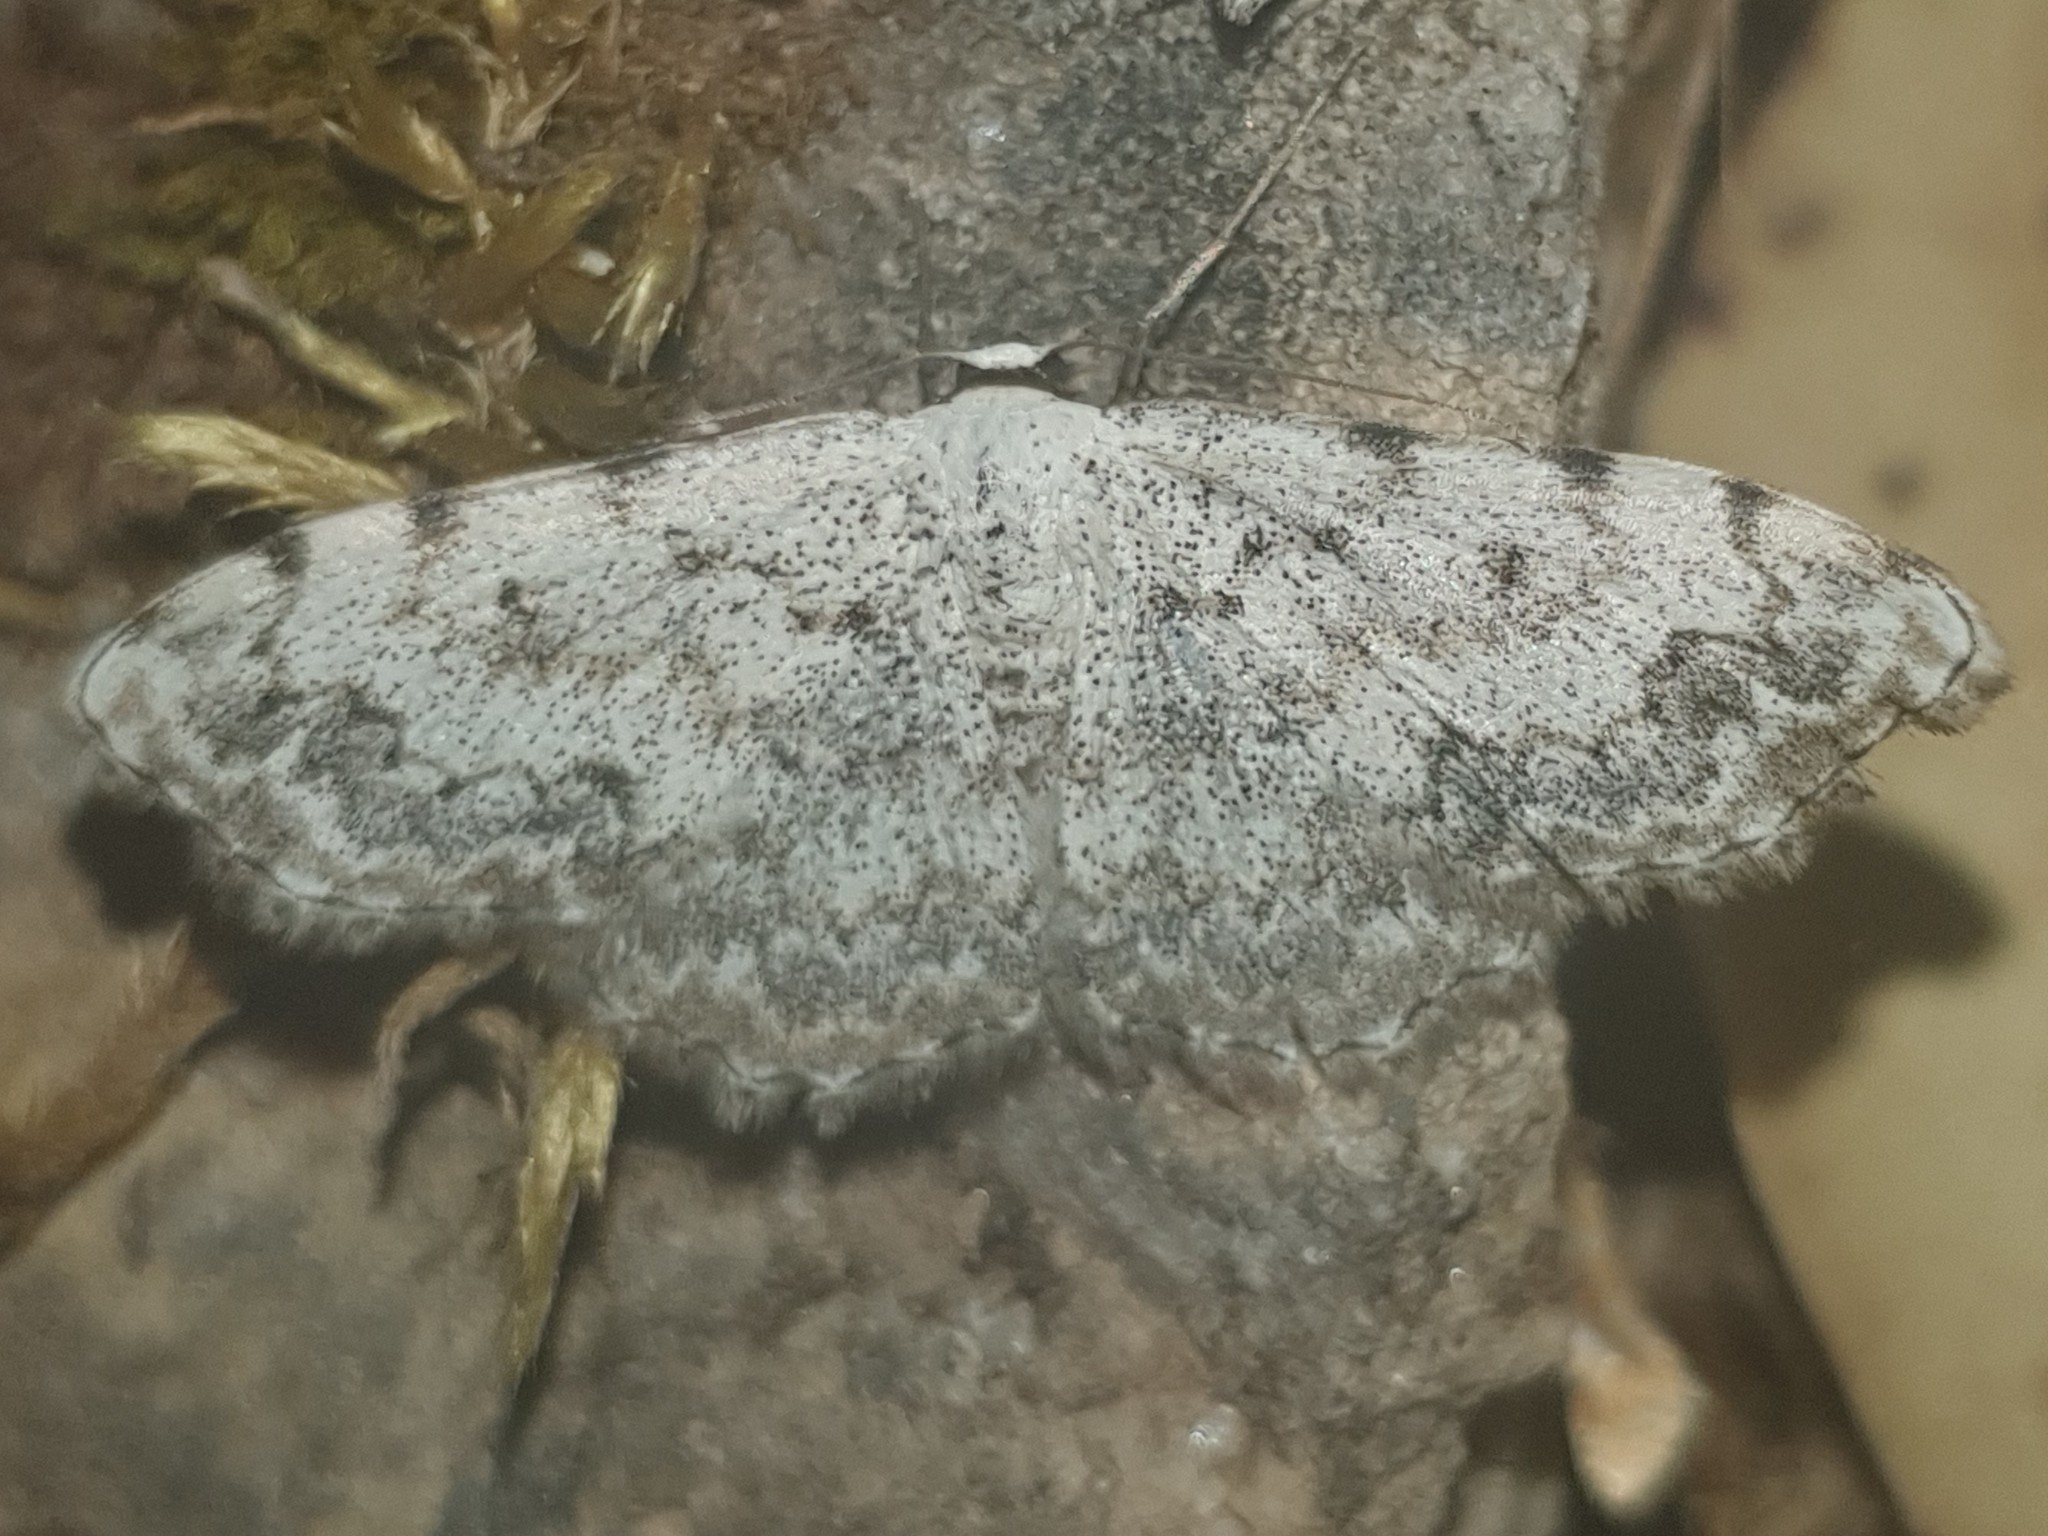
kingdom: Animalia
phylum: Arthropoda
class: Insecta
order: Lepidoptera
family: Geometridae
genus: Scopula
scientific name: Scopula submutata
